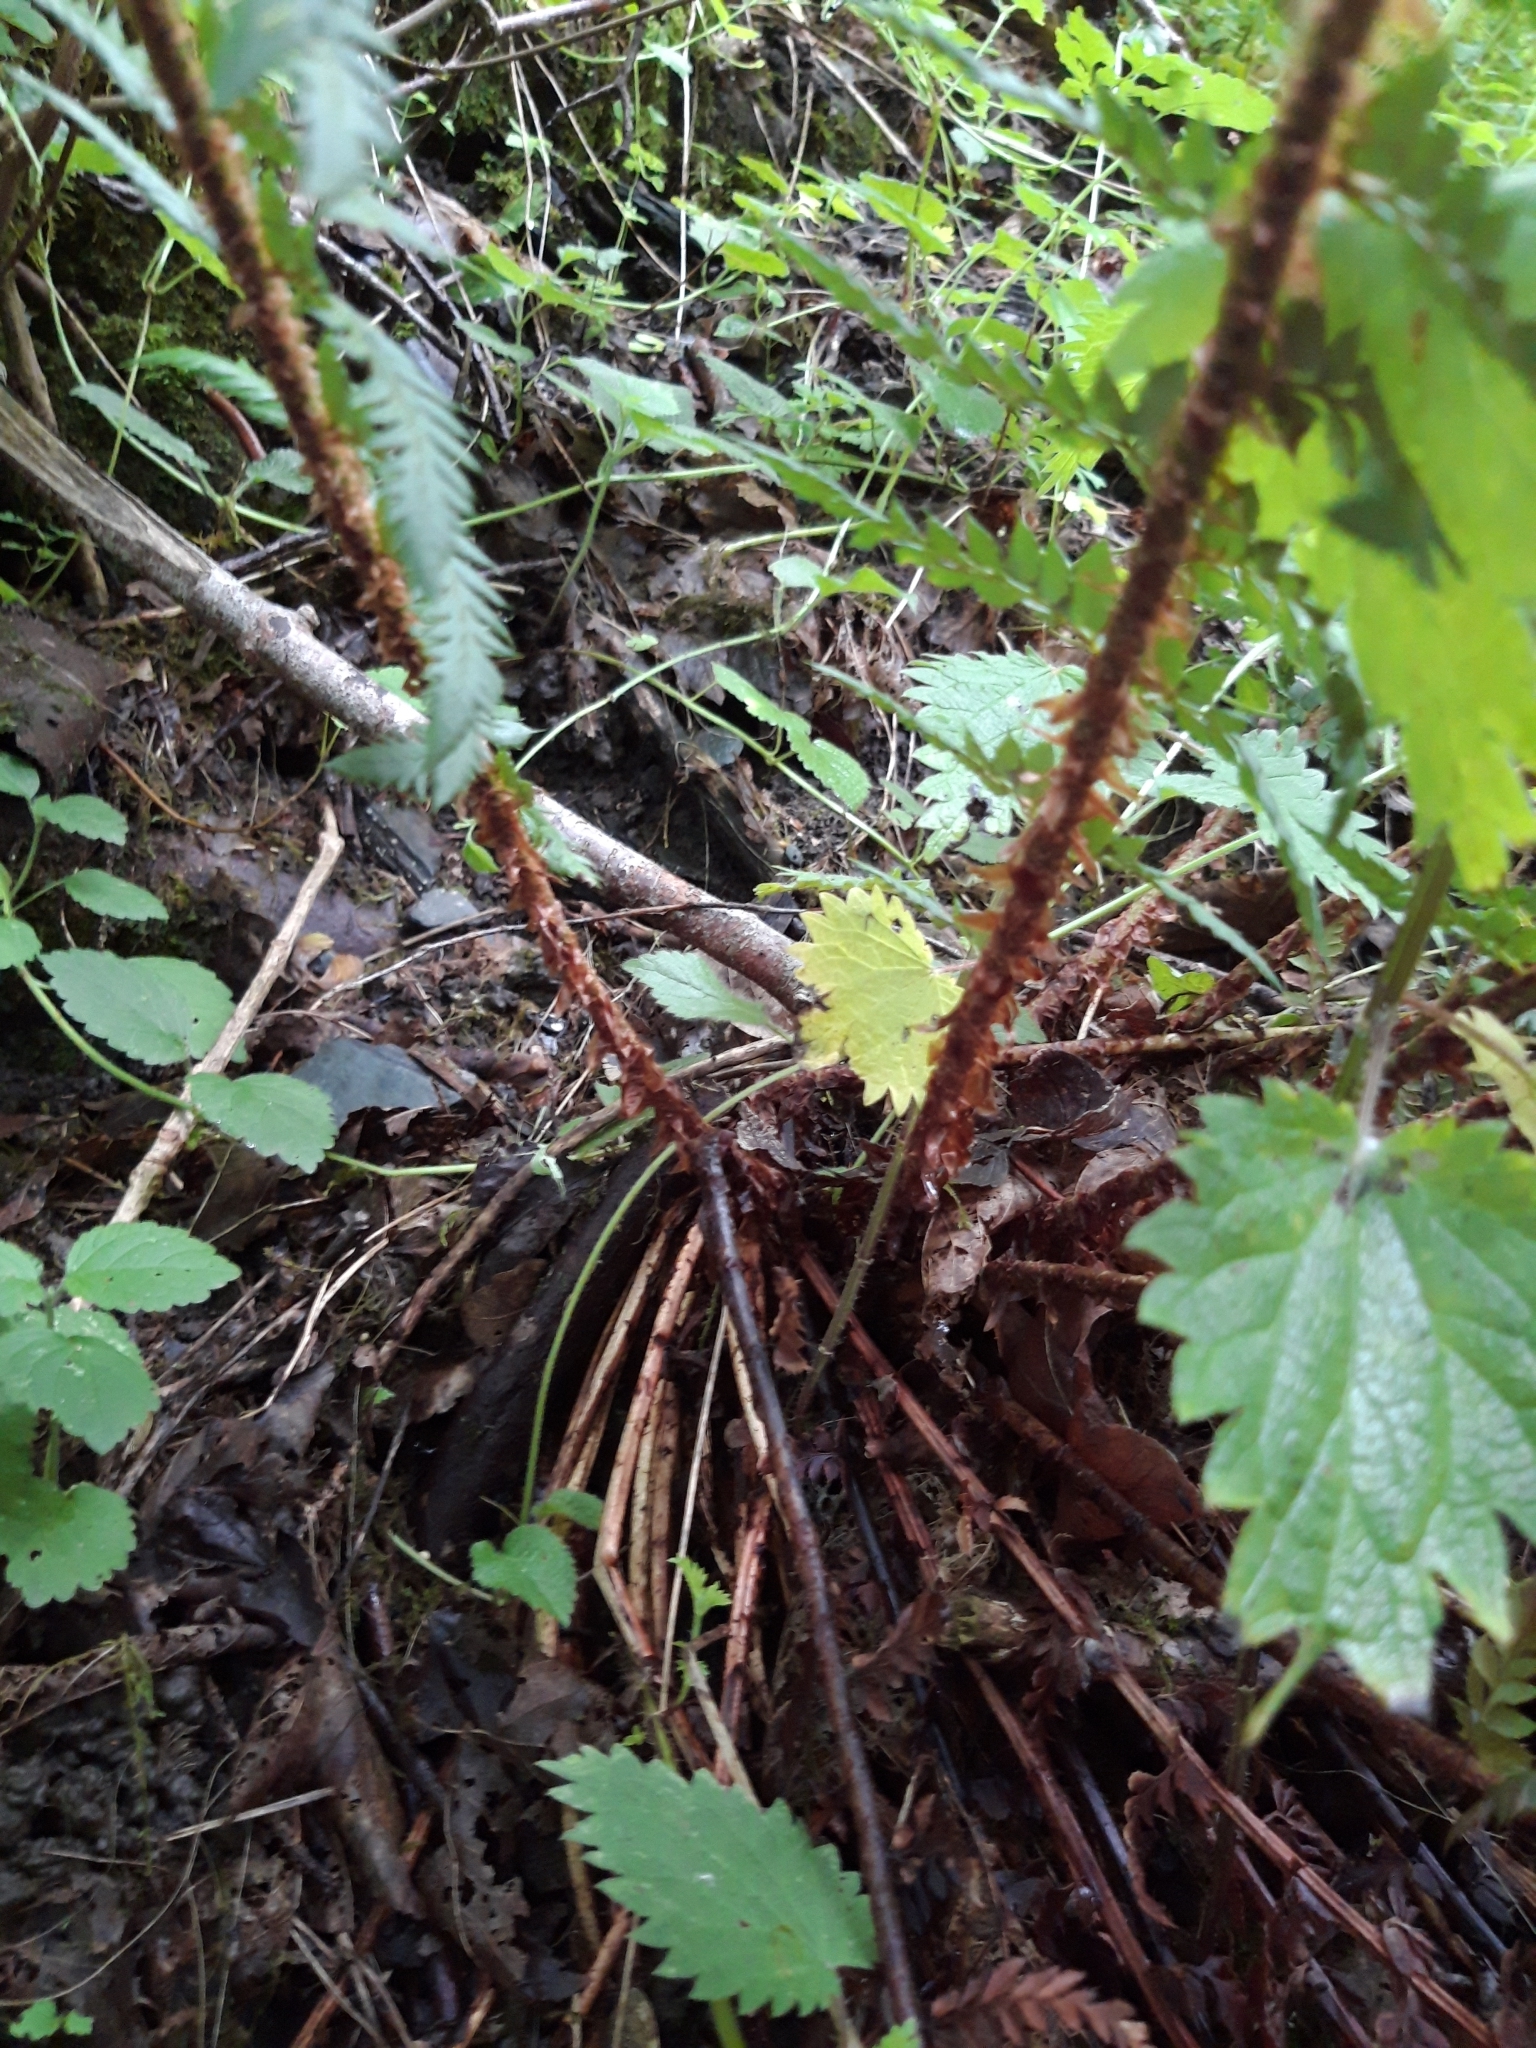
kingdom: Plantae
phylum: Tracheophyta
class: Polypodiopsida
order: Polypodiales
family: Dryopteridaceae
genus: Polystichum
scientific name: Polystichum aculeatum
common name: Hard shield-fern
